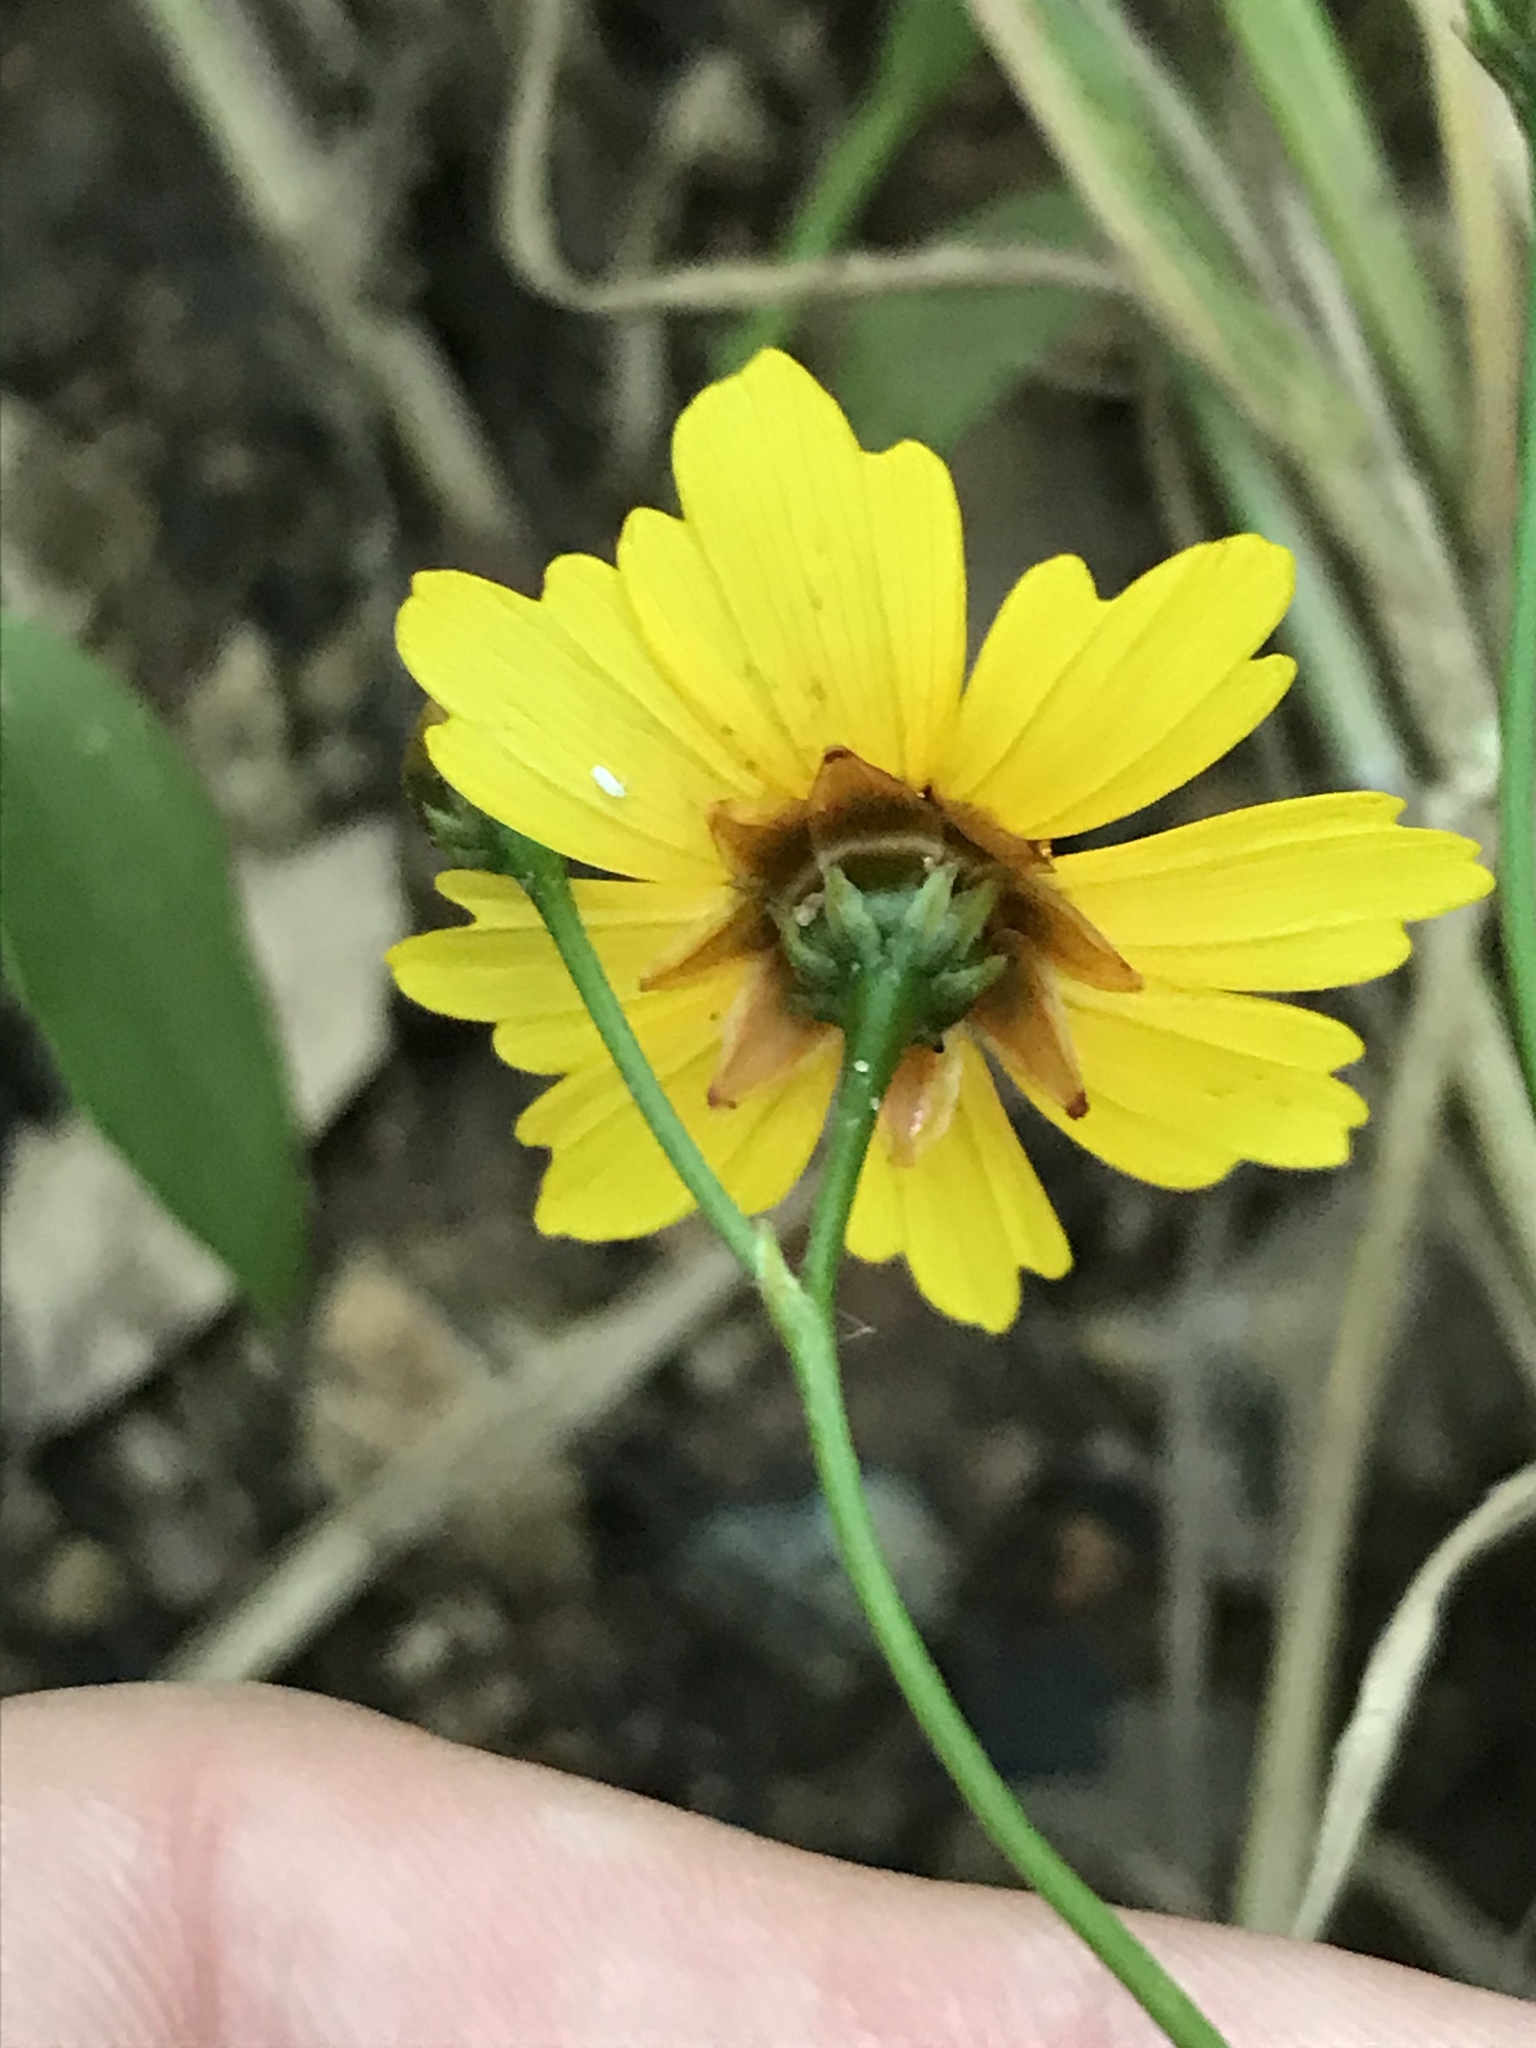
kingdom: Plantae
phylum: Tracheophyta
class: Magnoliopsida
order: Asterales
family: Asteraceae
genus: Coreopsis
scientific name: Coreopsis tinctoria
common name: Garden tickseed
